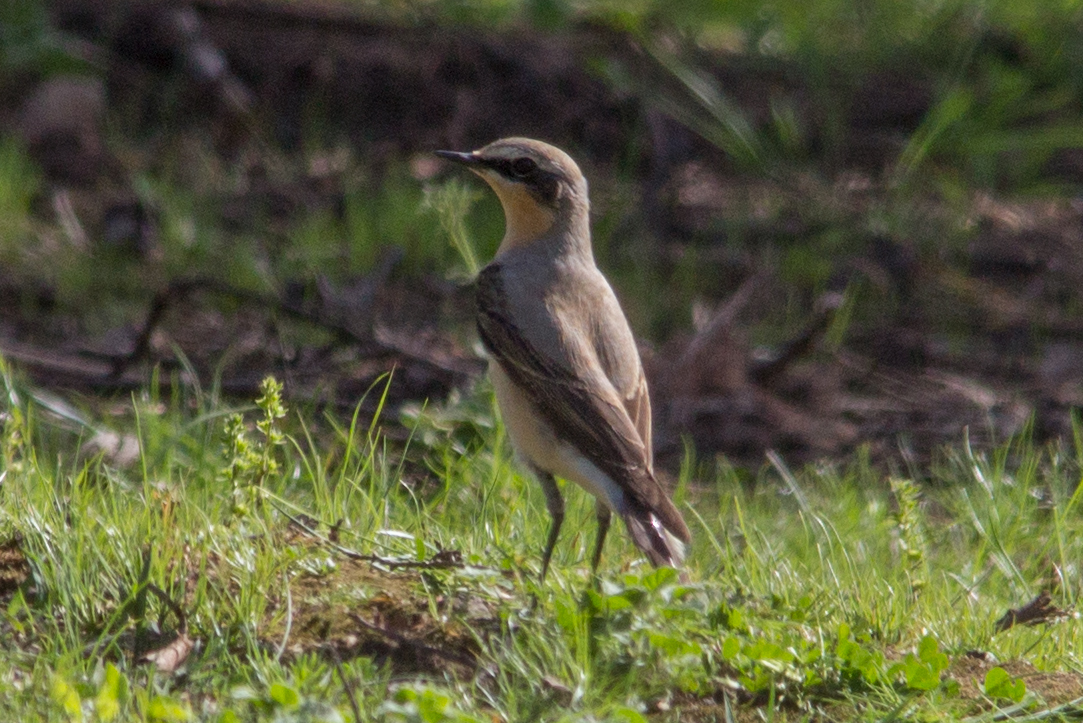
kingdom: Animalia
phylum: Chordata
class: Aves
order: Passeriformes
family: Muscicapidae
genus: Oenanthe
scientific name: Oenanthe oenanthe
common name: Northern wheatear
